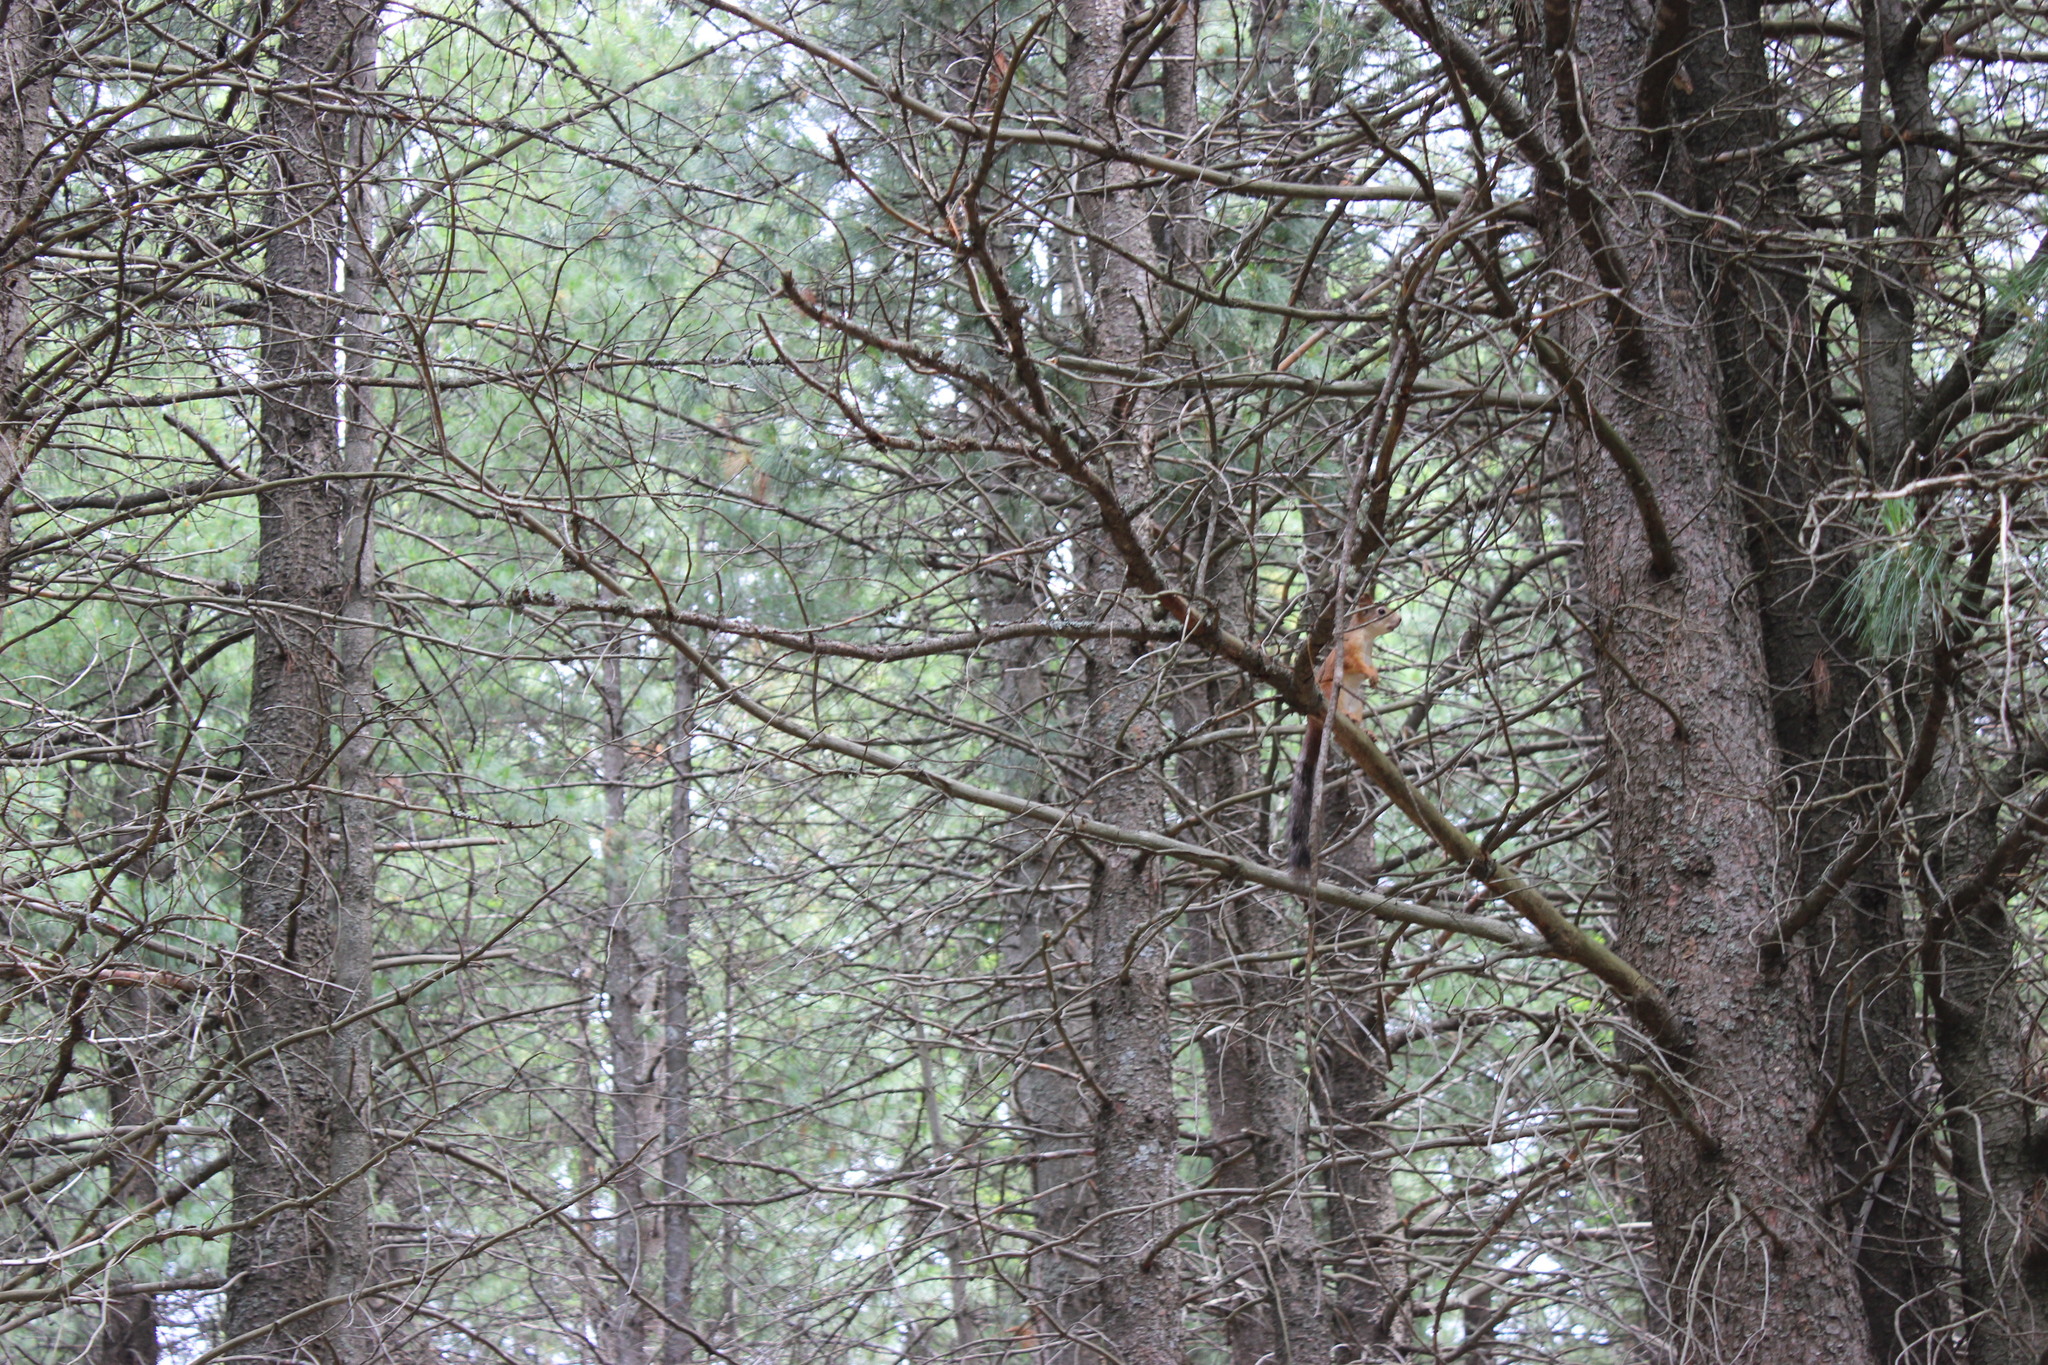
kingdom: Animalia
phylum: Chordata
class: Mammalia
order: Rodentia
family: Sciuridae
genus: Sciurus
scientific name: Sciurus vulgaris
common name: Eurasian red squirrel
